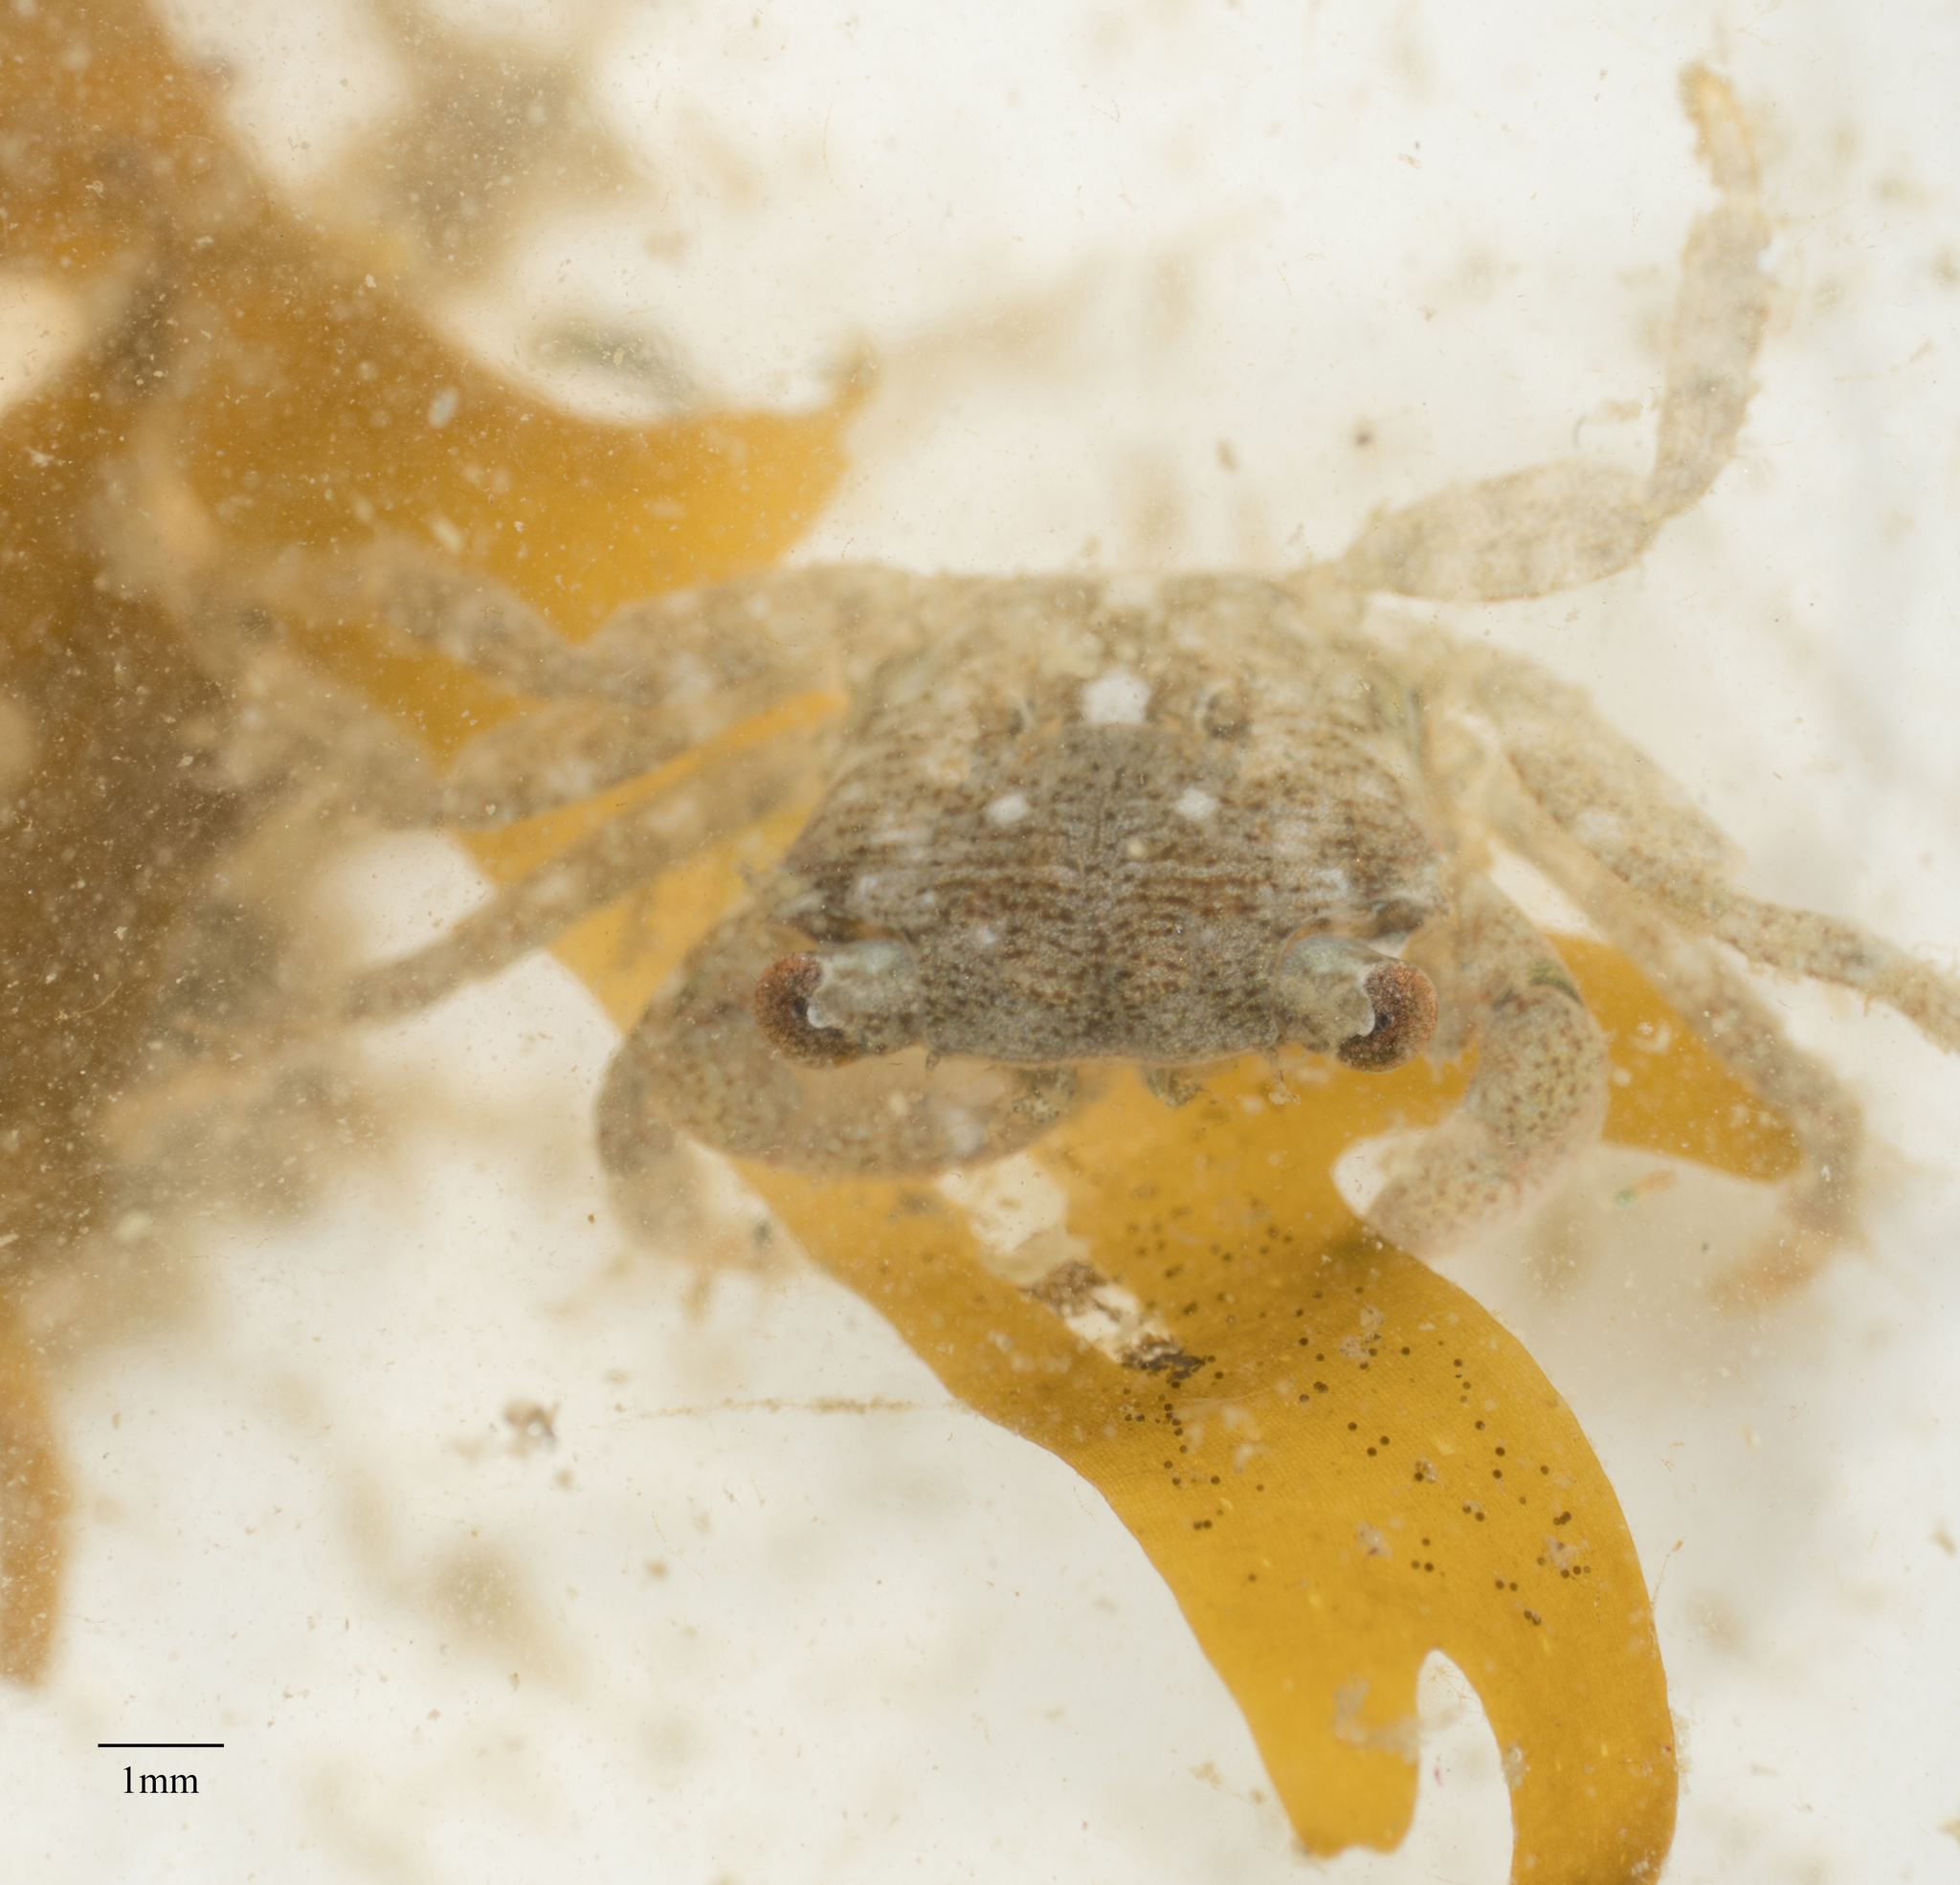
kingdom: Animalia
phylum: Arthropoda
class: Malacostraca
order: Decapoda
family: Grapsidae
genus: Pachygrapsus
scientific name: Pachygrapsus crassipes
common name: Striped shore crab
